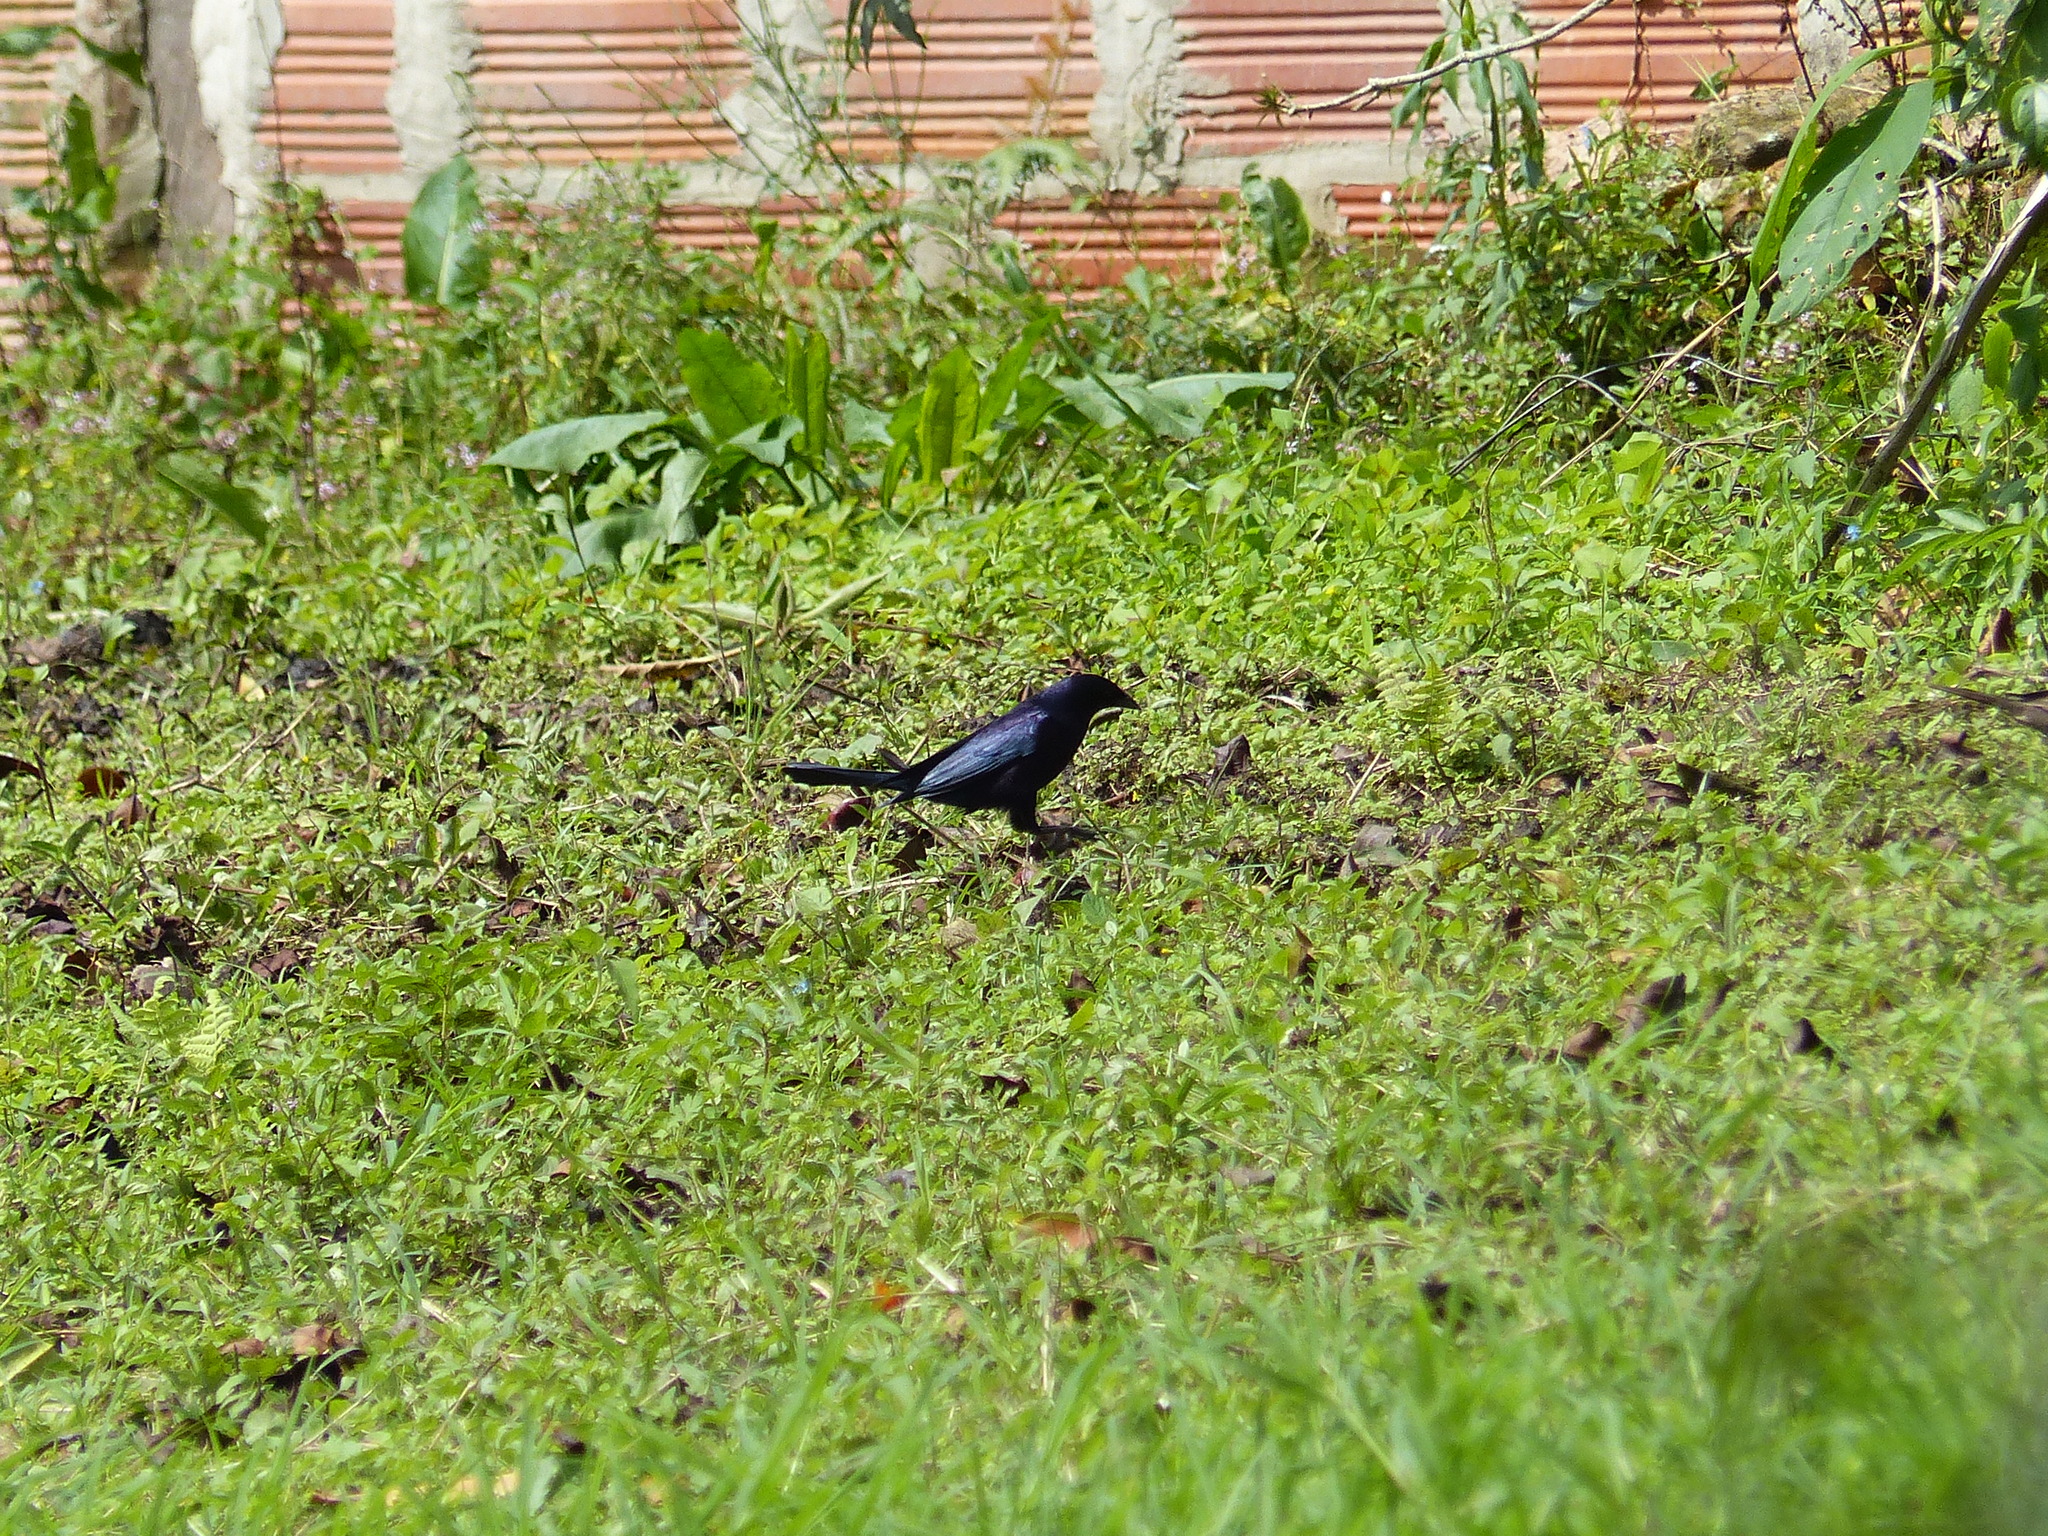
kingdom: Animalia
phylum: Chordata
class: Aves
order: Passeriformes
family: Icteridae
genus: Quiscalus
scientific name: Quiscalus lugubris
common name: Carib grackle
